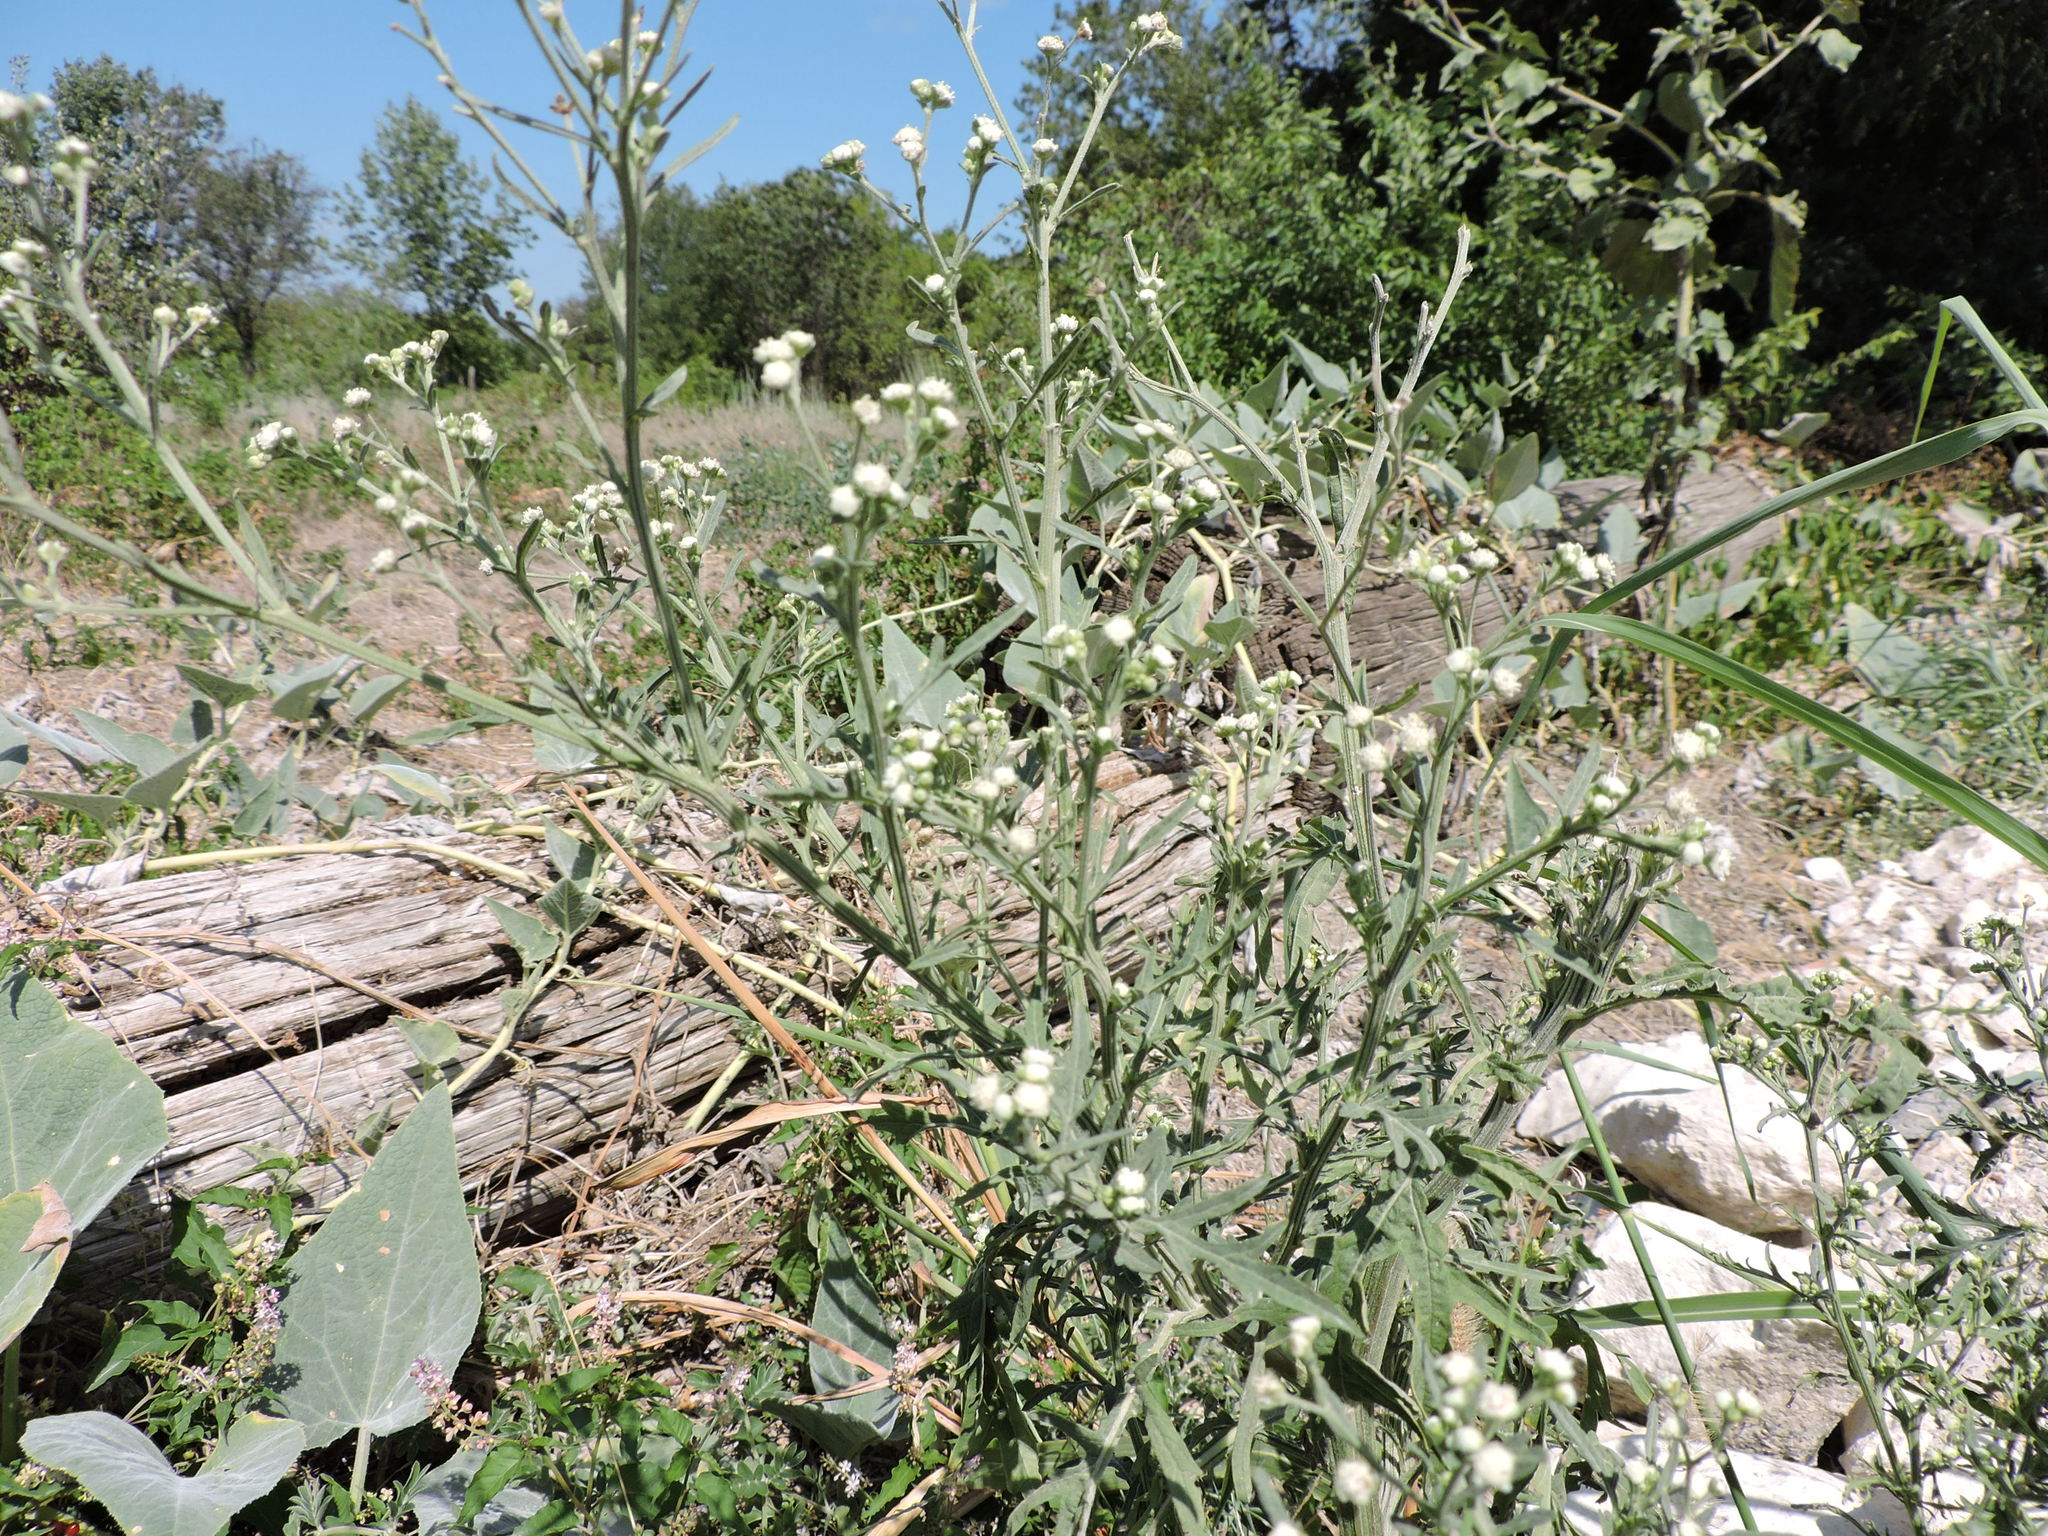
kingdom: Plantae
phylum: Tracheophyta
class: Magnoliopsida
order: Asterales
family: Asteraceae
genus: Parthenium
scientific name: Parthenium hysterophorus
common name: Santa maria feverfew
